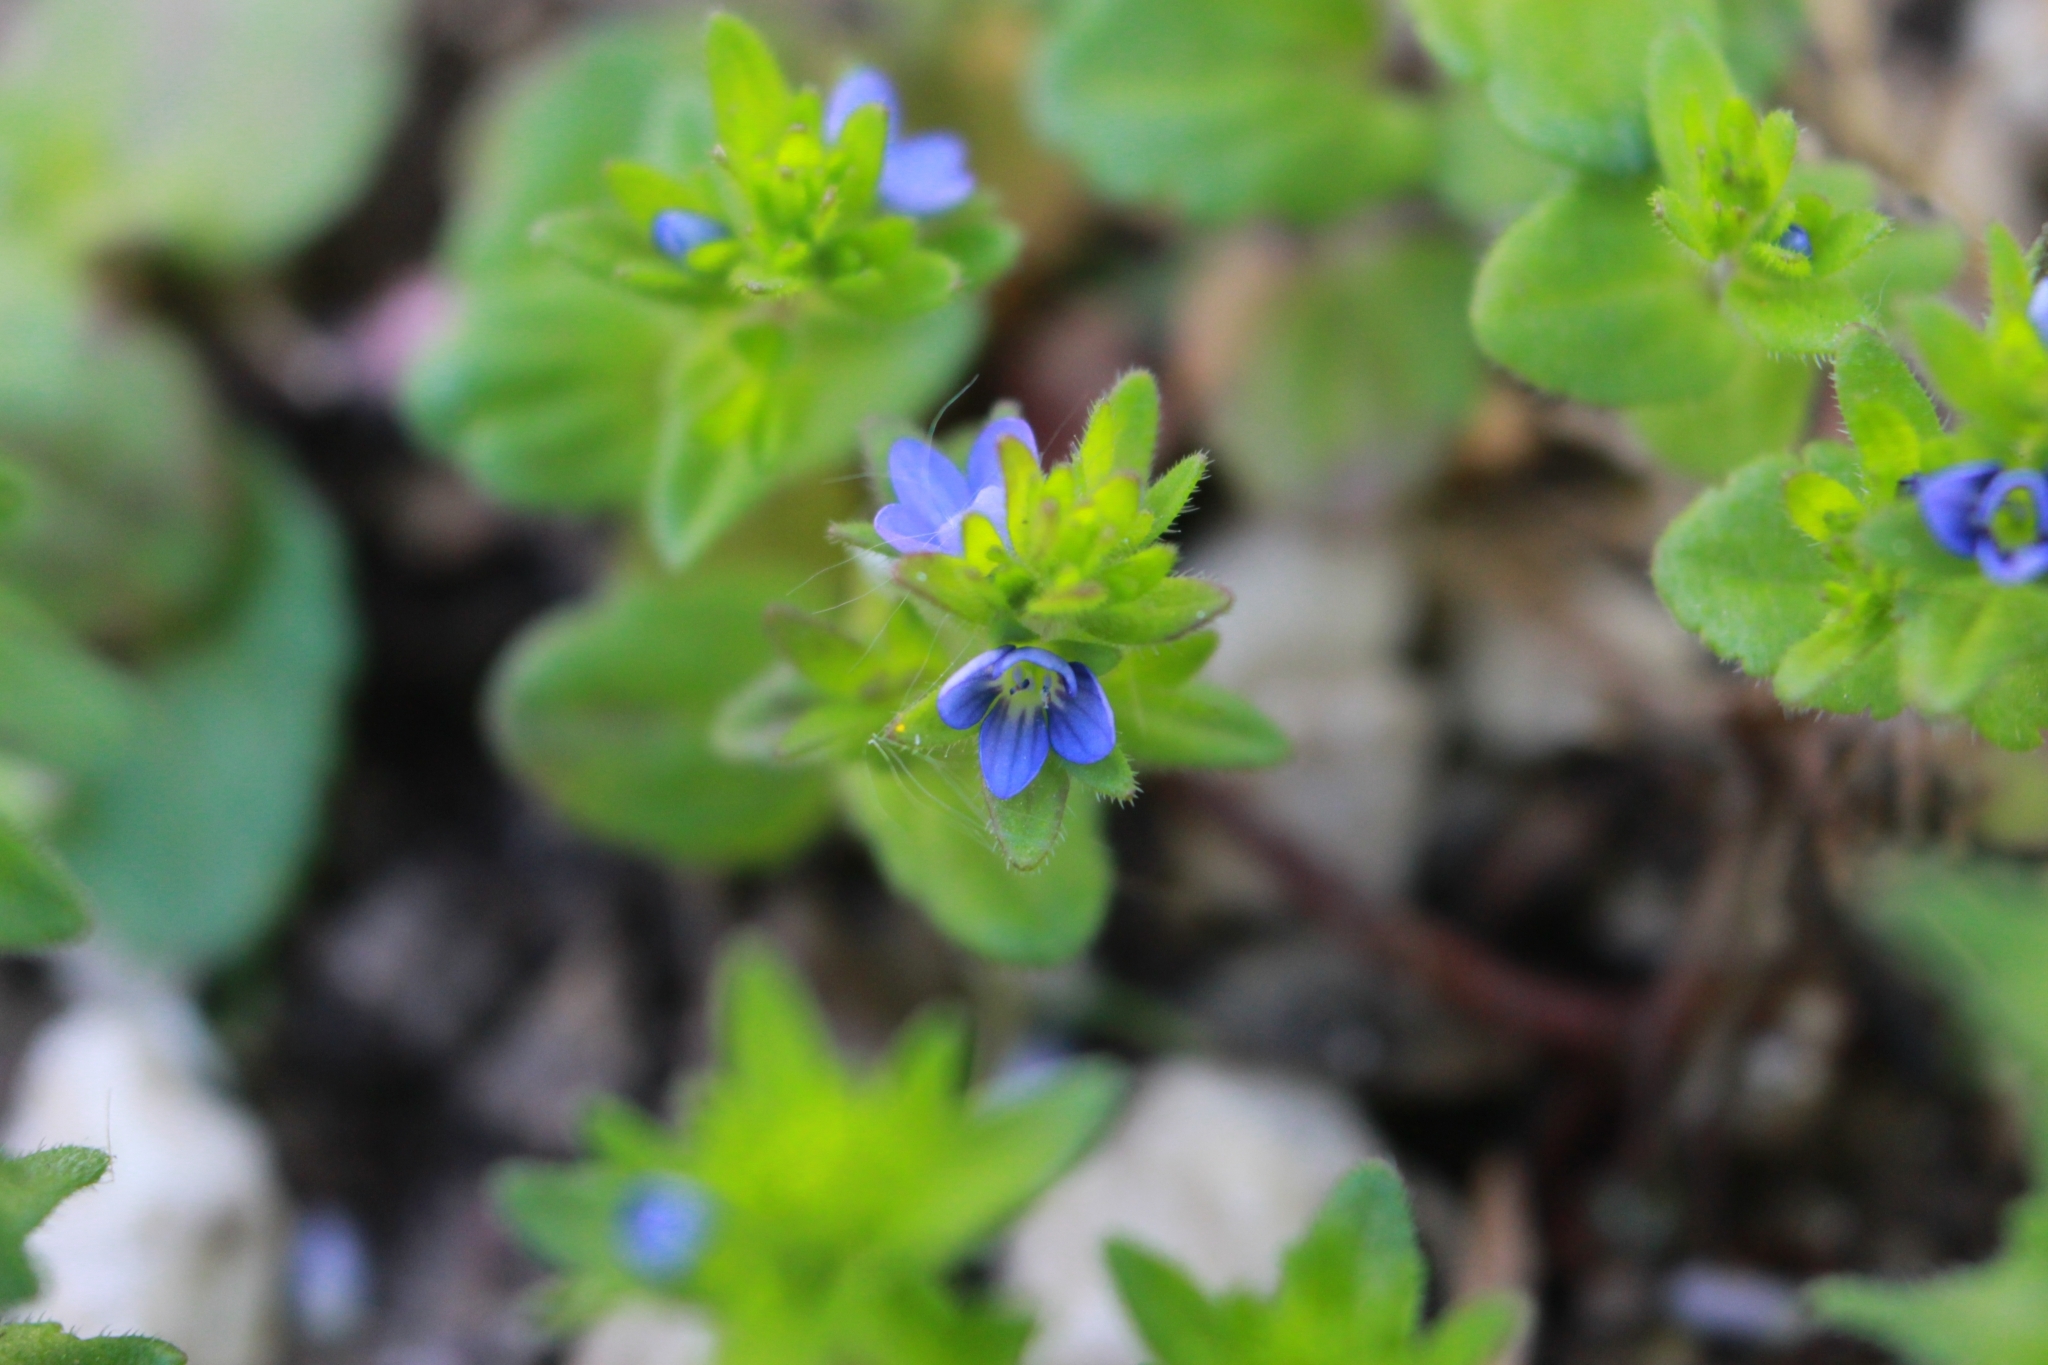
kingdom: Plantae
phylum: Tracheophyta
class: Magnoliopsida
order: Lamiales
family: Plantaginaceae
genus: Veronica
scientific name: Veronica arvensis
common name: Corn speedwell
